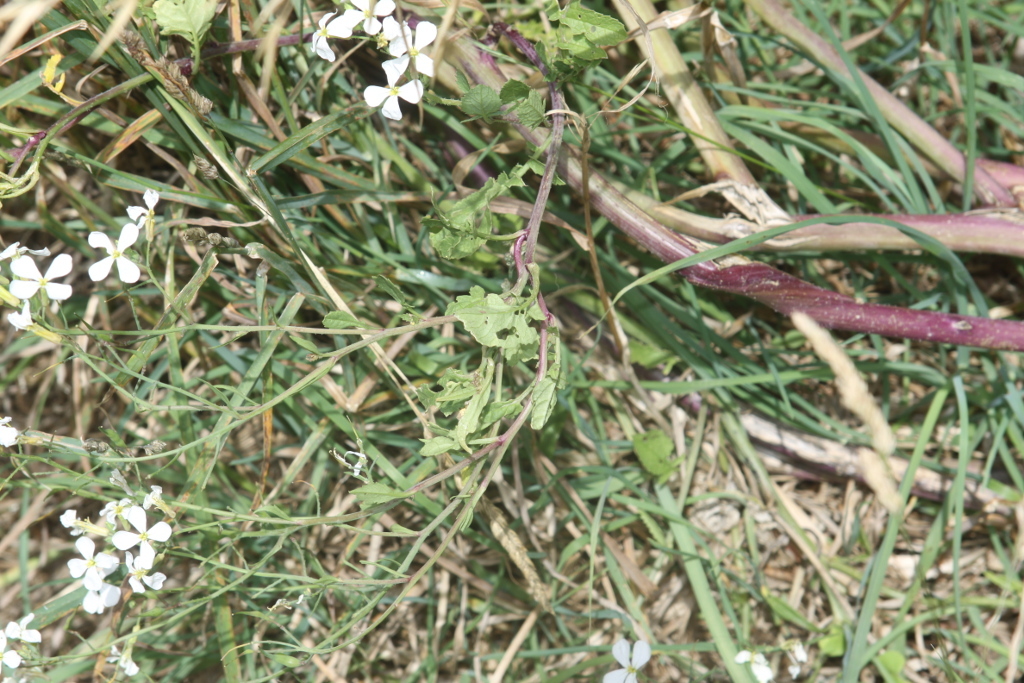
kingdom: Plantae
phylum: Tracheophyta
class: Magnoliopsida
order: Brassicales
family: Brassicaceae
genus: Raphanus
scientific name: Raphanus raphanistrum
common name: Wild radish
